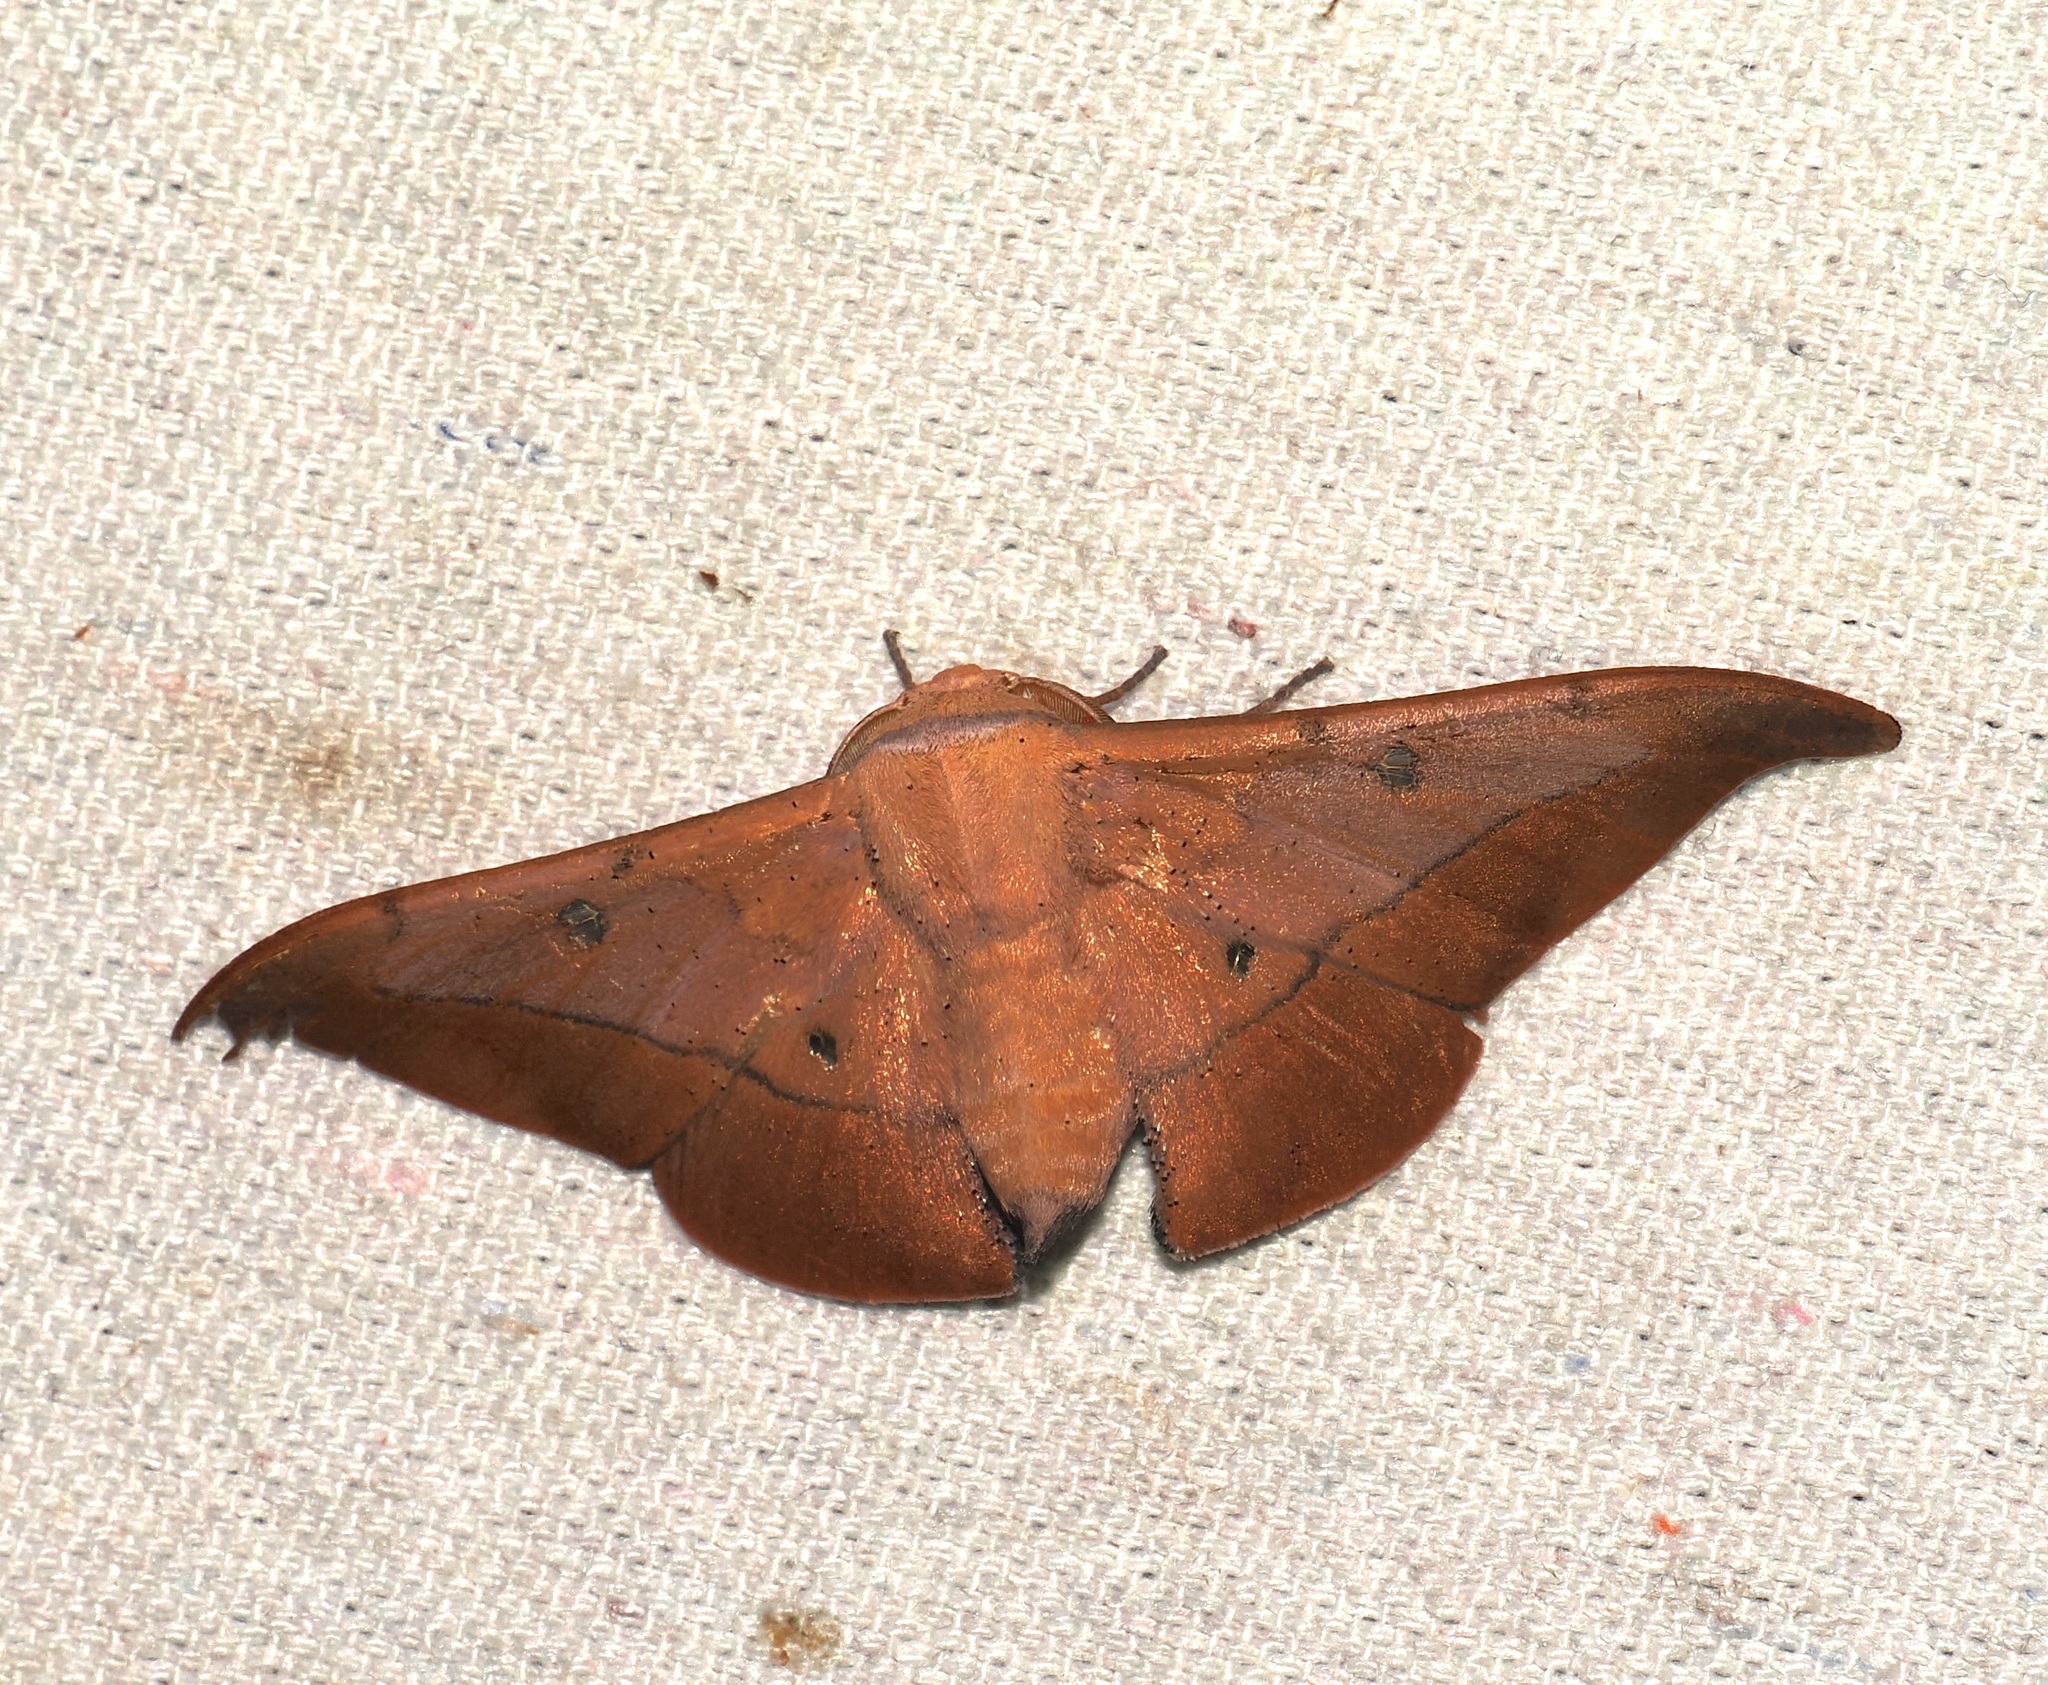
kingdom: Animalia
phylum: Arthropoda
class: Insecta
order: Lepidoptera
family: Mimallonidae
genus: Isoscella
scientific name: Isoscella
